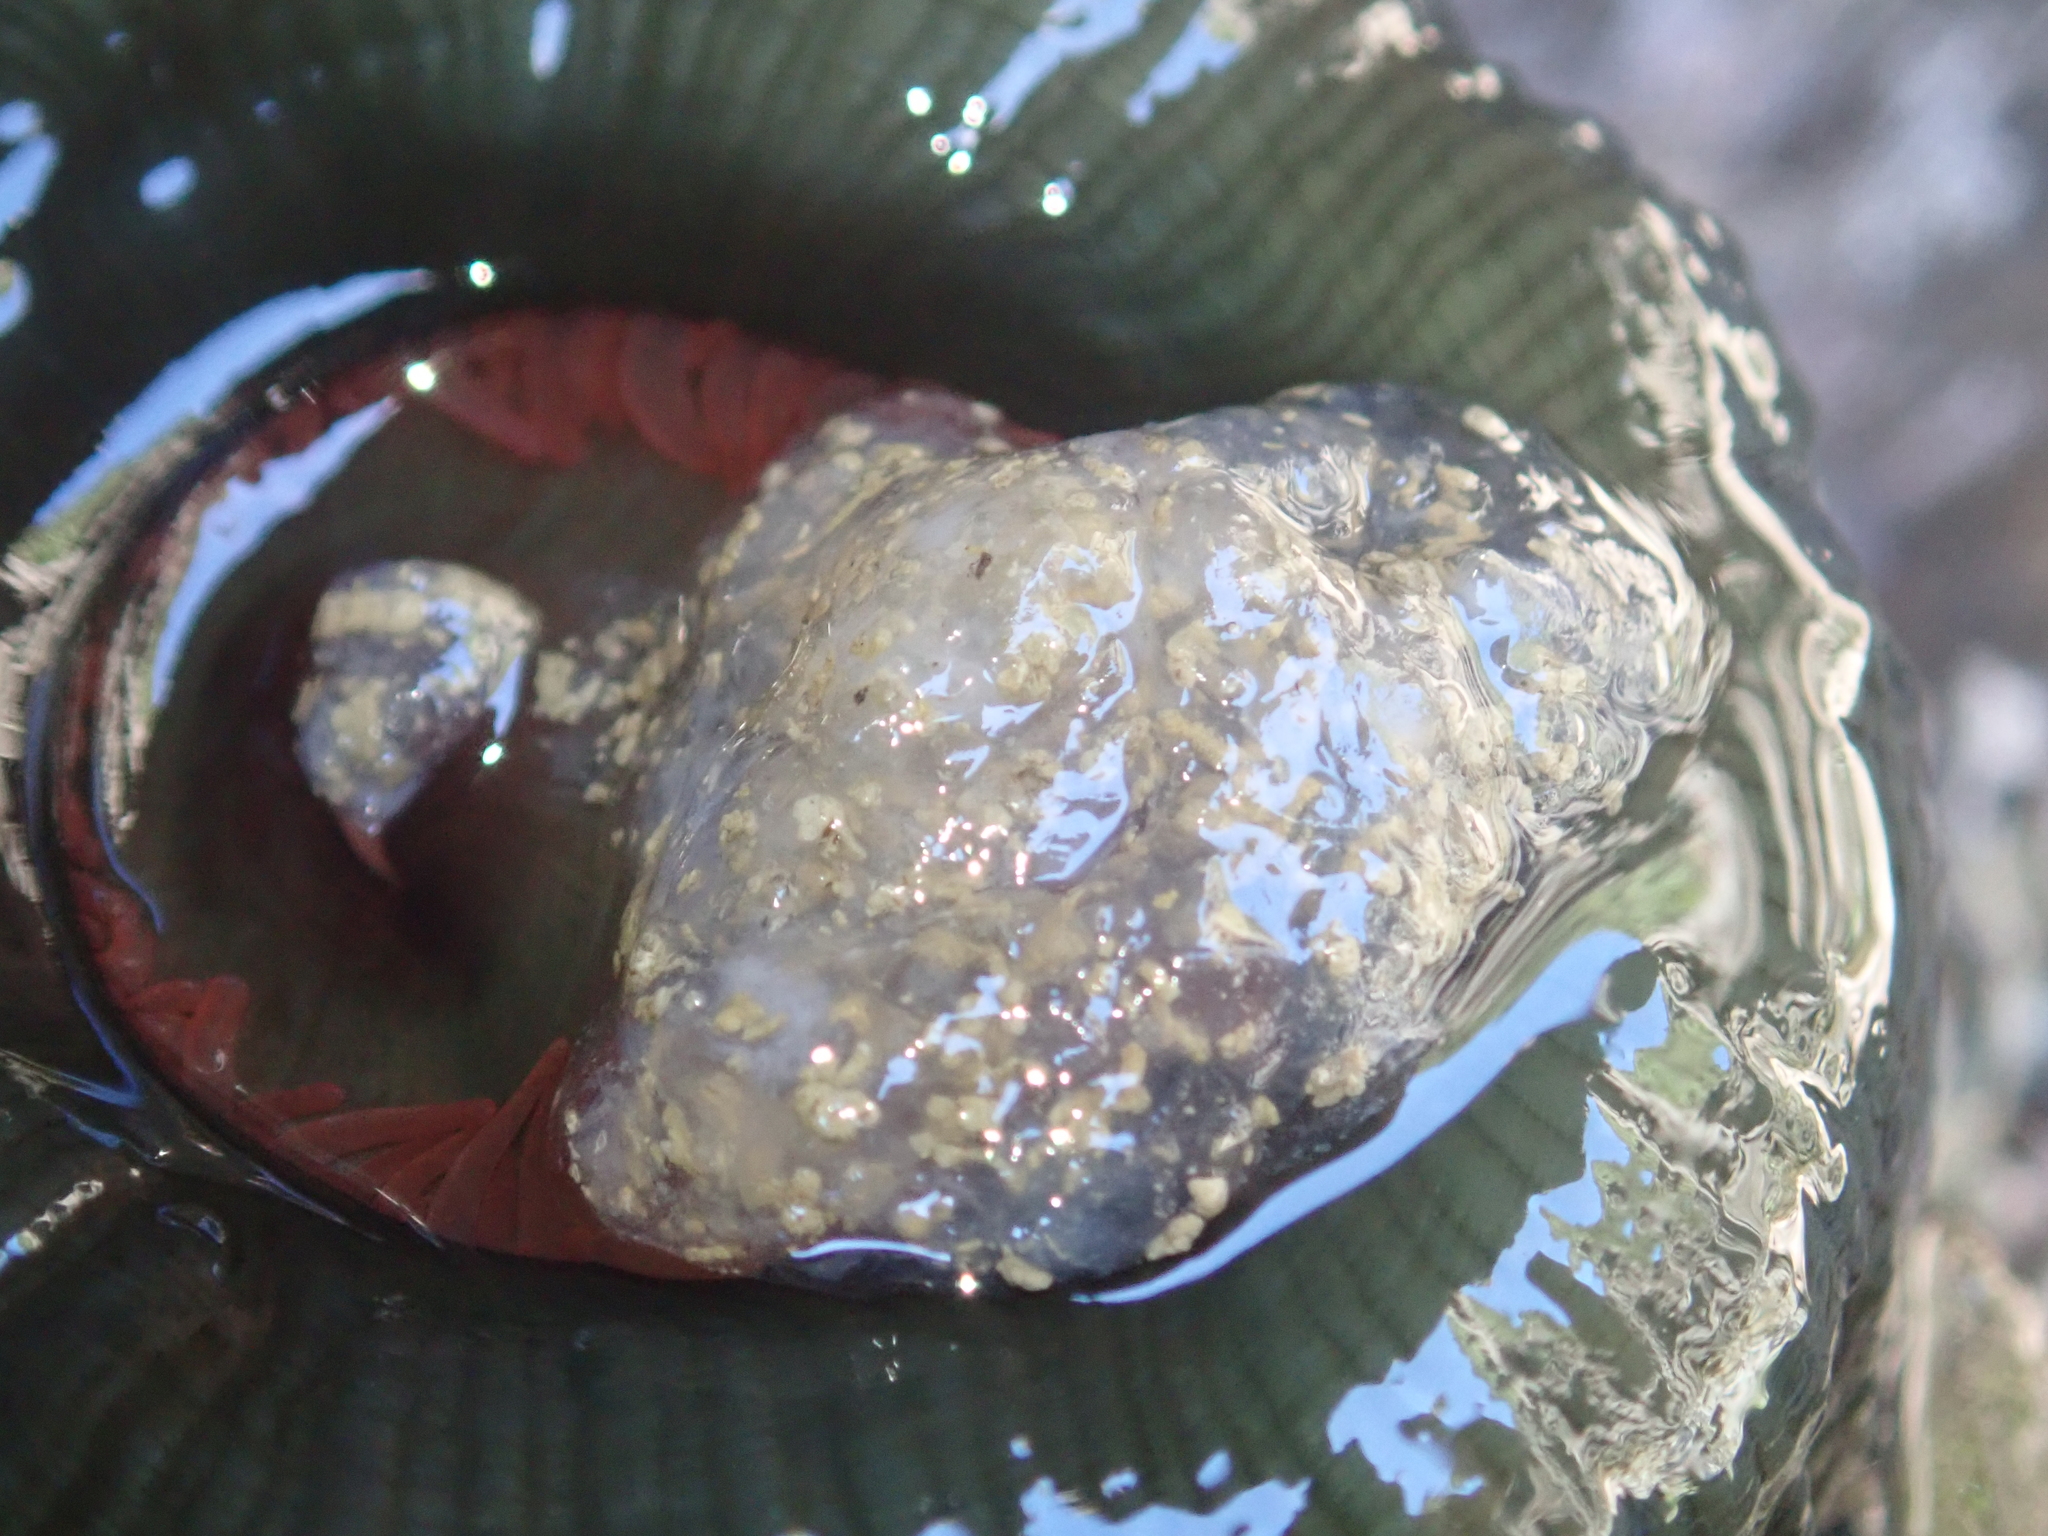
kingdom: Animalia
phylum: Cnidaria
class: Anthozoa
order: Actiniaria
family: Actiniidae
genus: Actinia
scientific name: Actinia tenebrosa
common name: Waratah anemone
